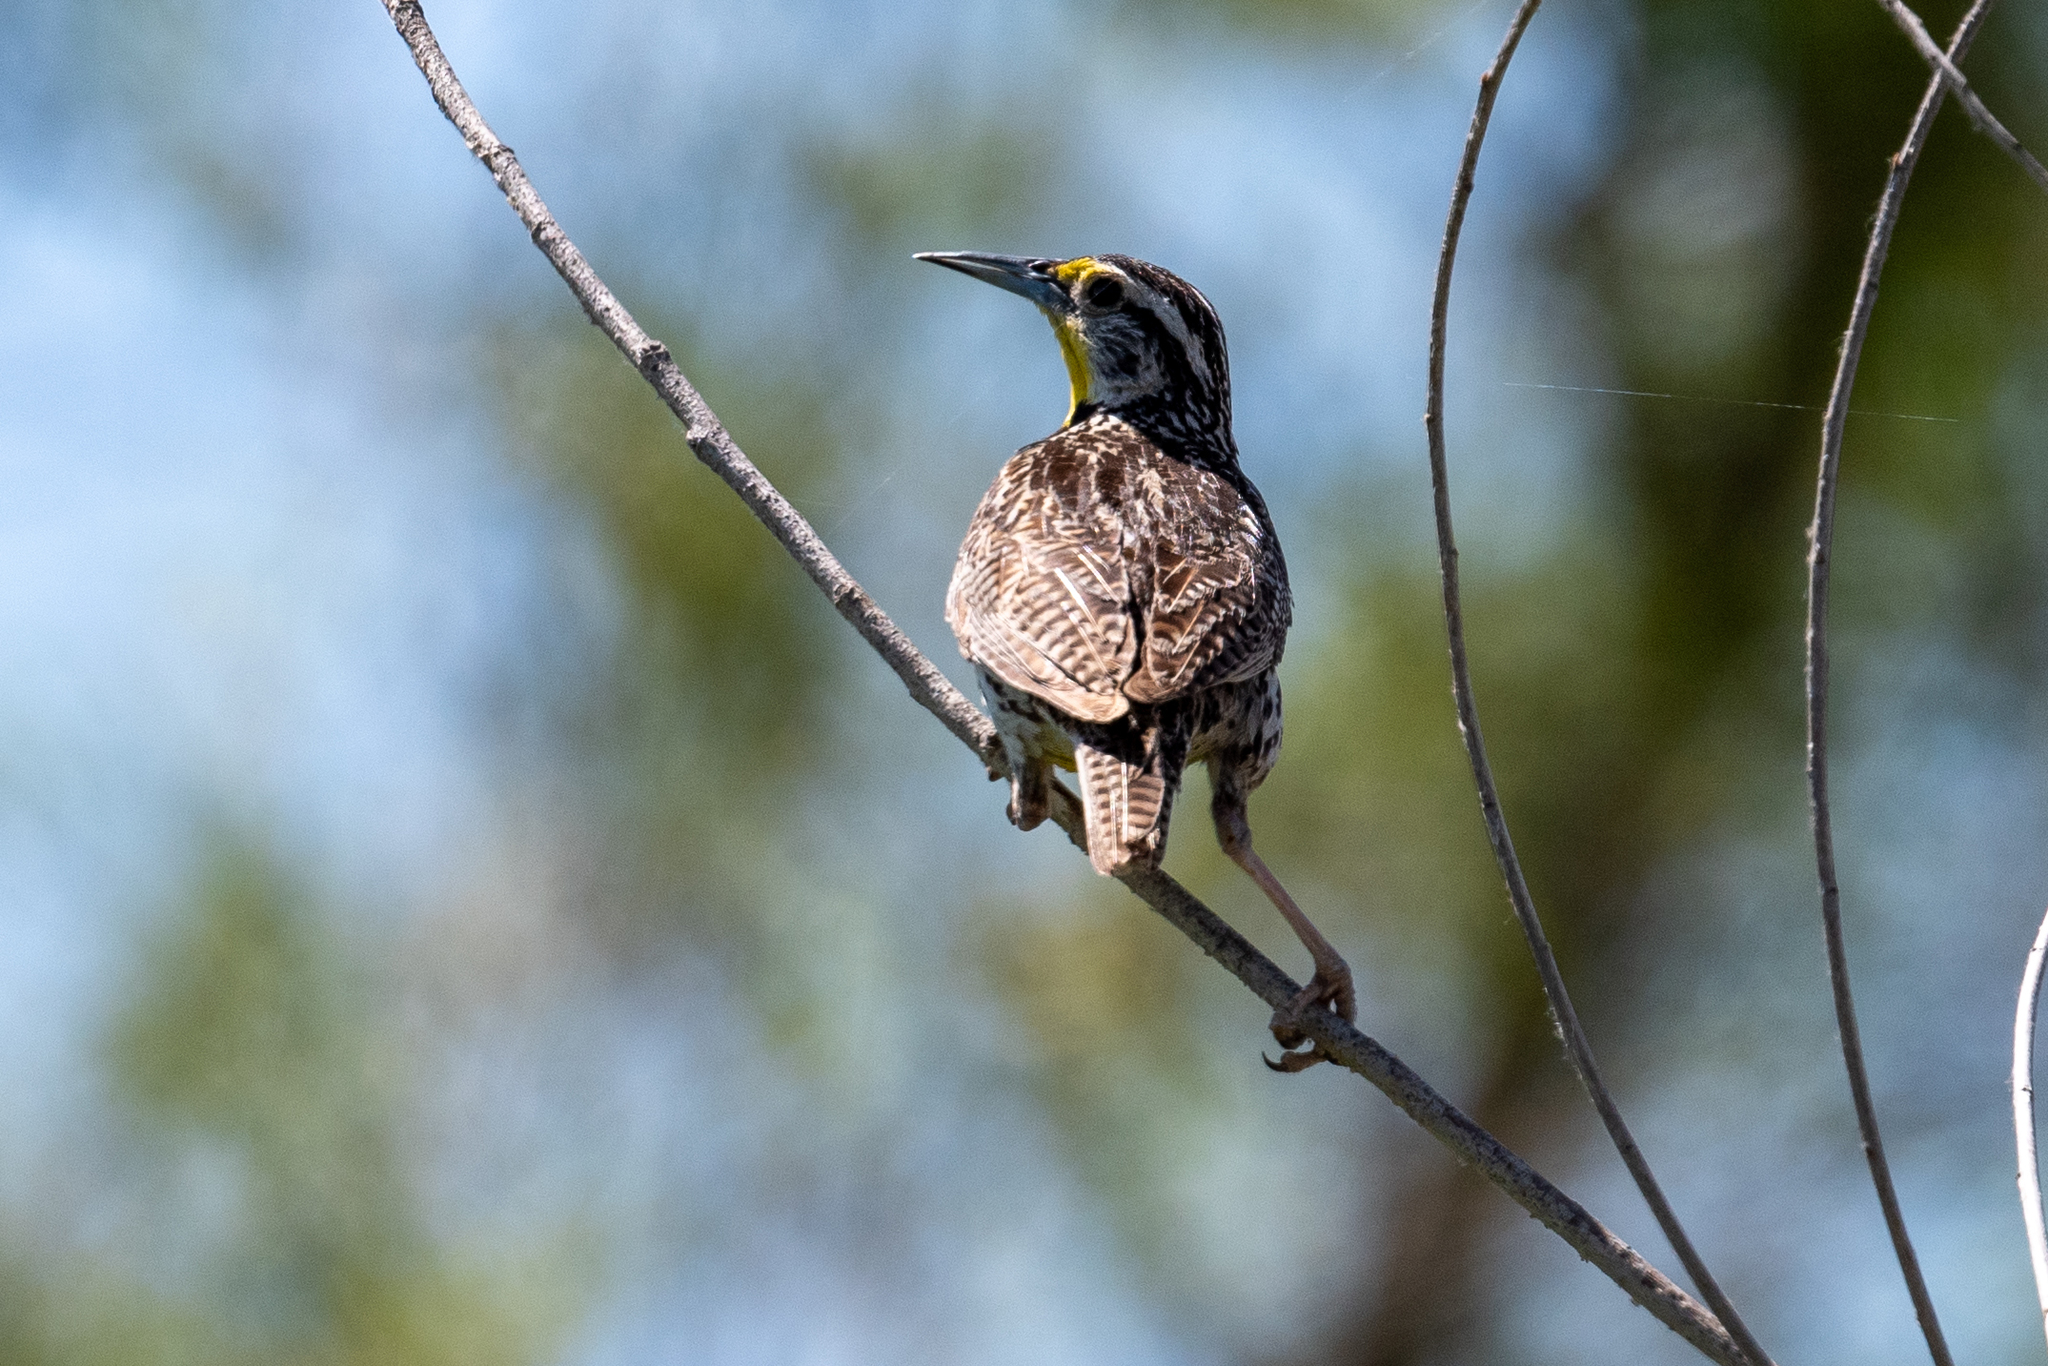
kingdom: Animalia
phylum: Chordata
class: Aves
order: Passeriformes
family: Icteridae
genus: Sturnella
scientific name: Sturnella neglecta
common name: Western meadowlark
